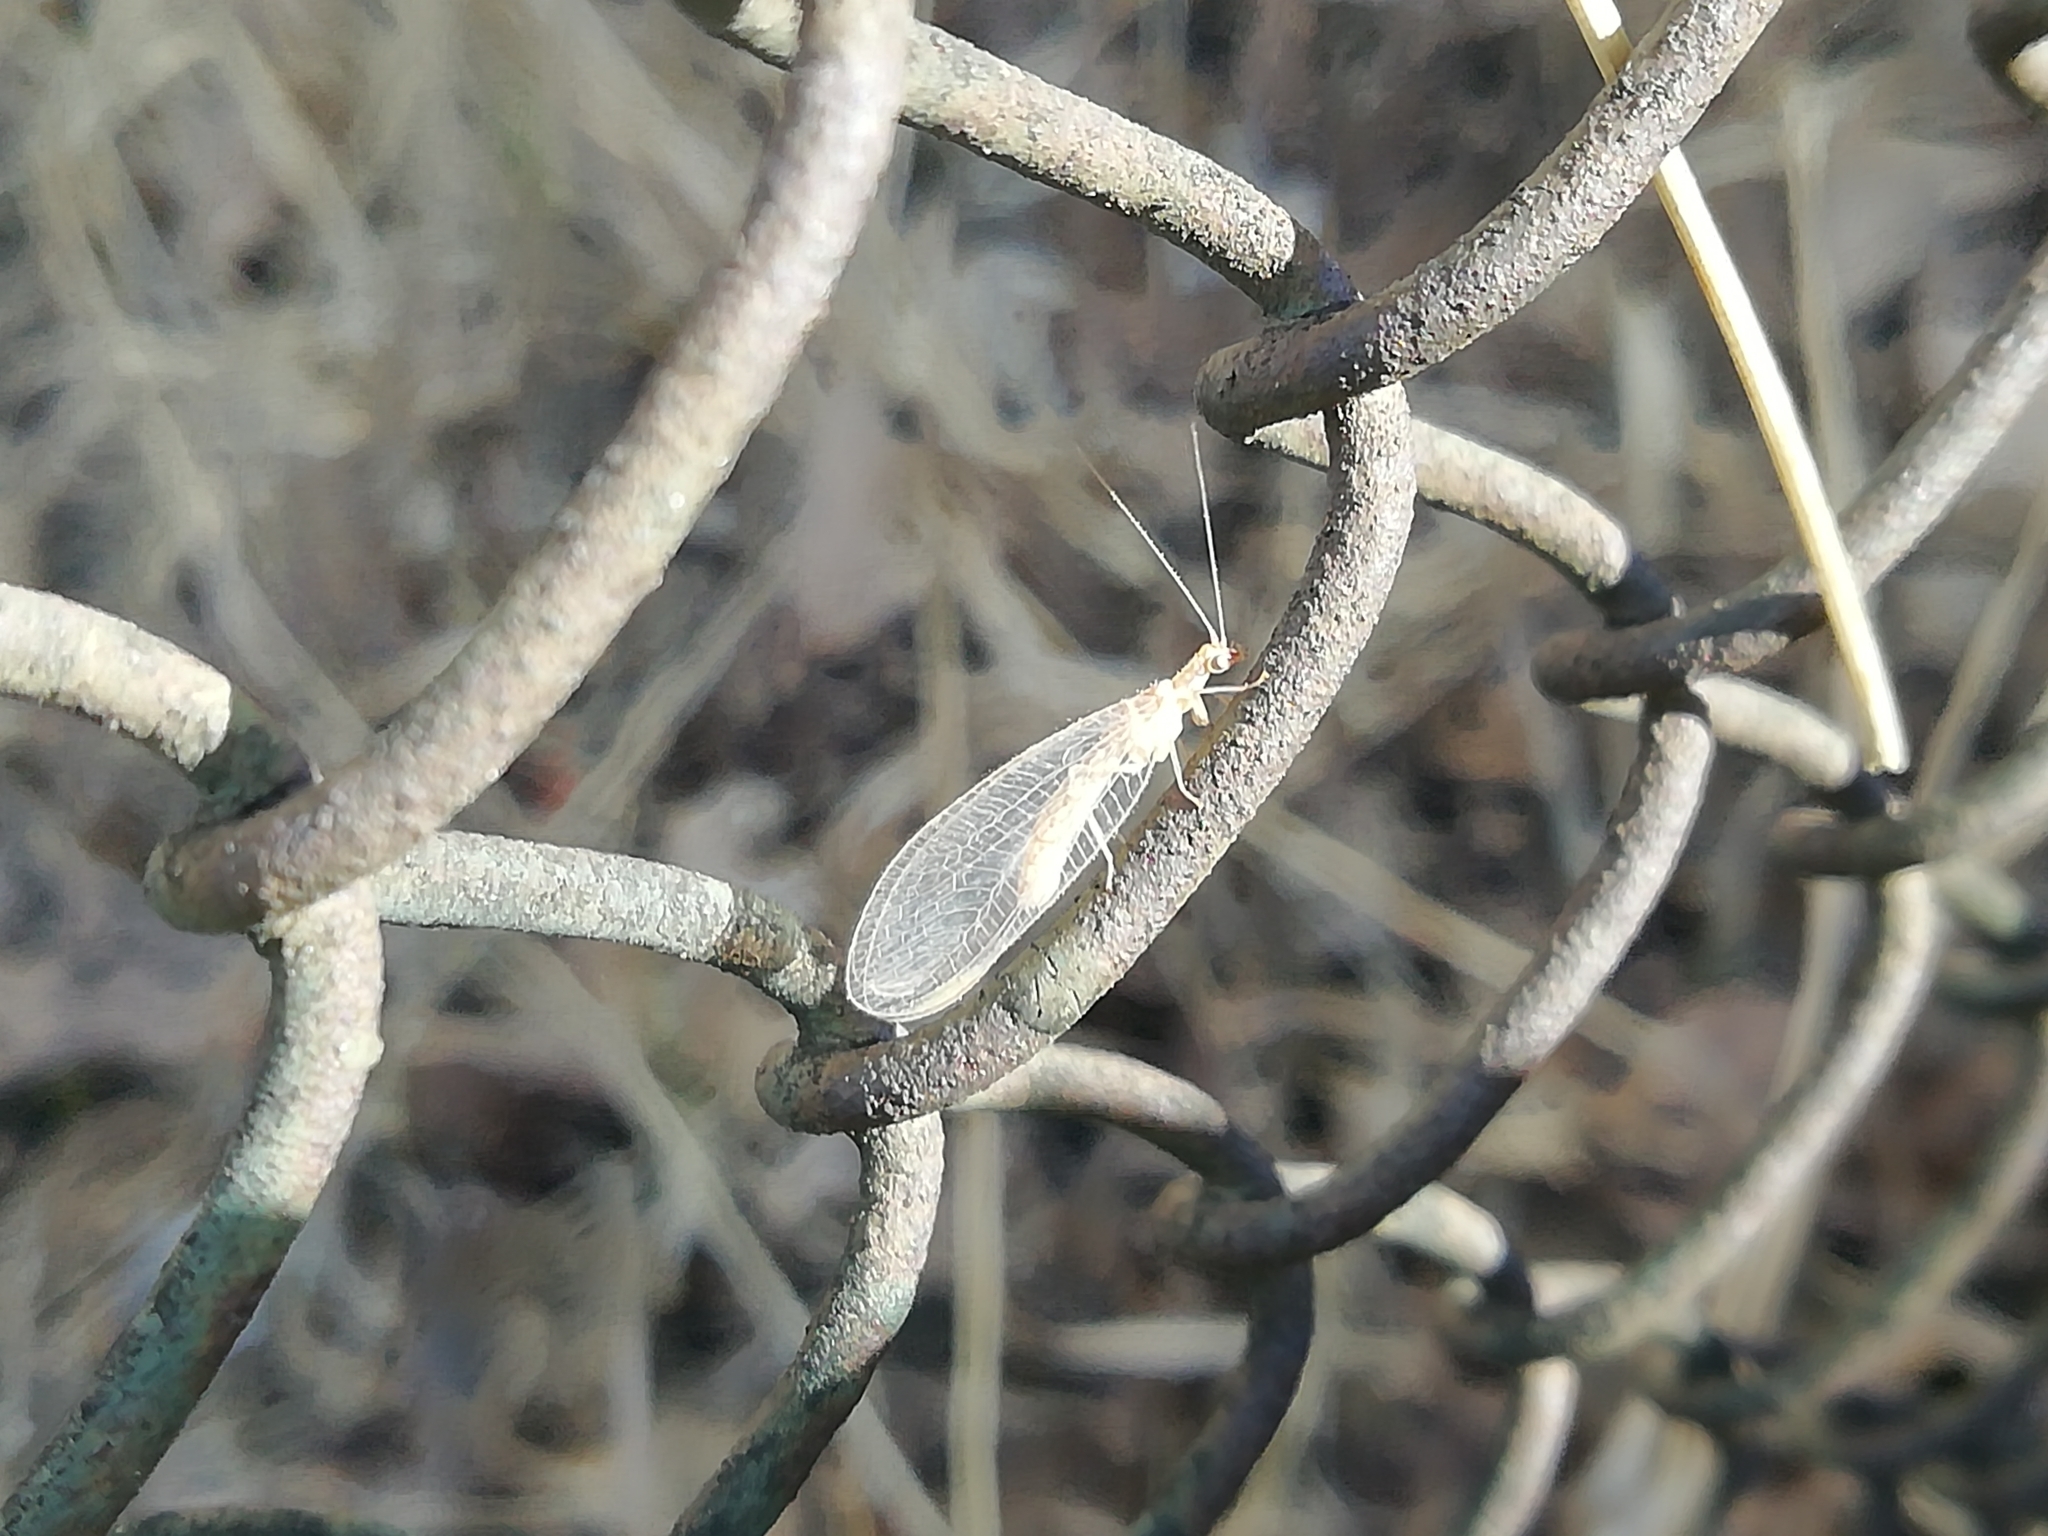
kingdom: Animalia
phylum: Arthropoda
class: Insecta
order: Neuroptera
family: Chrysopidae
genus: Chrysoperla
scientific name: Chrysoperla
